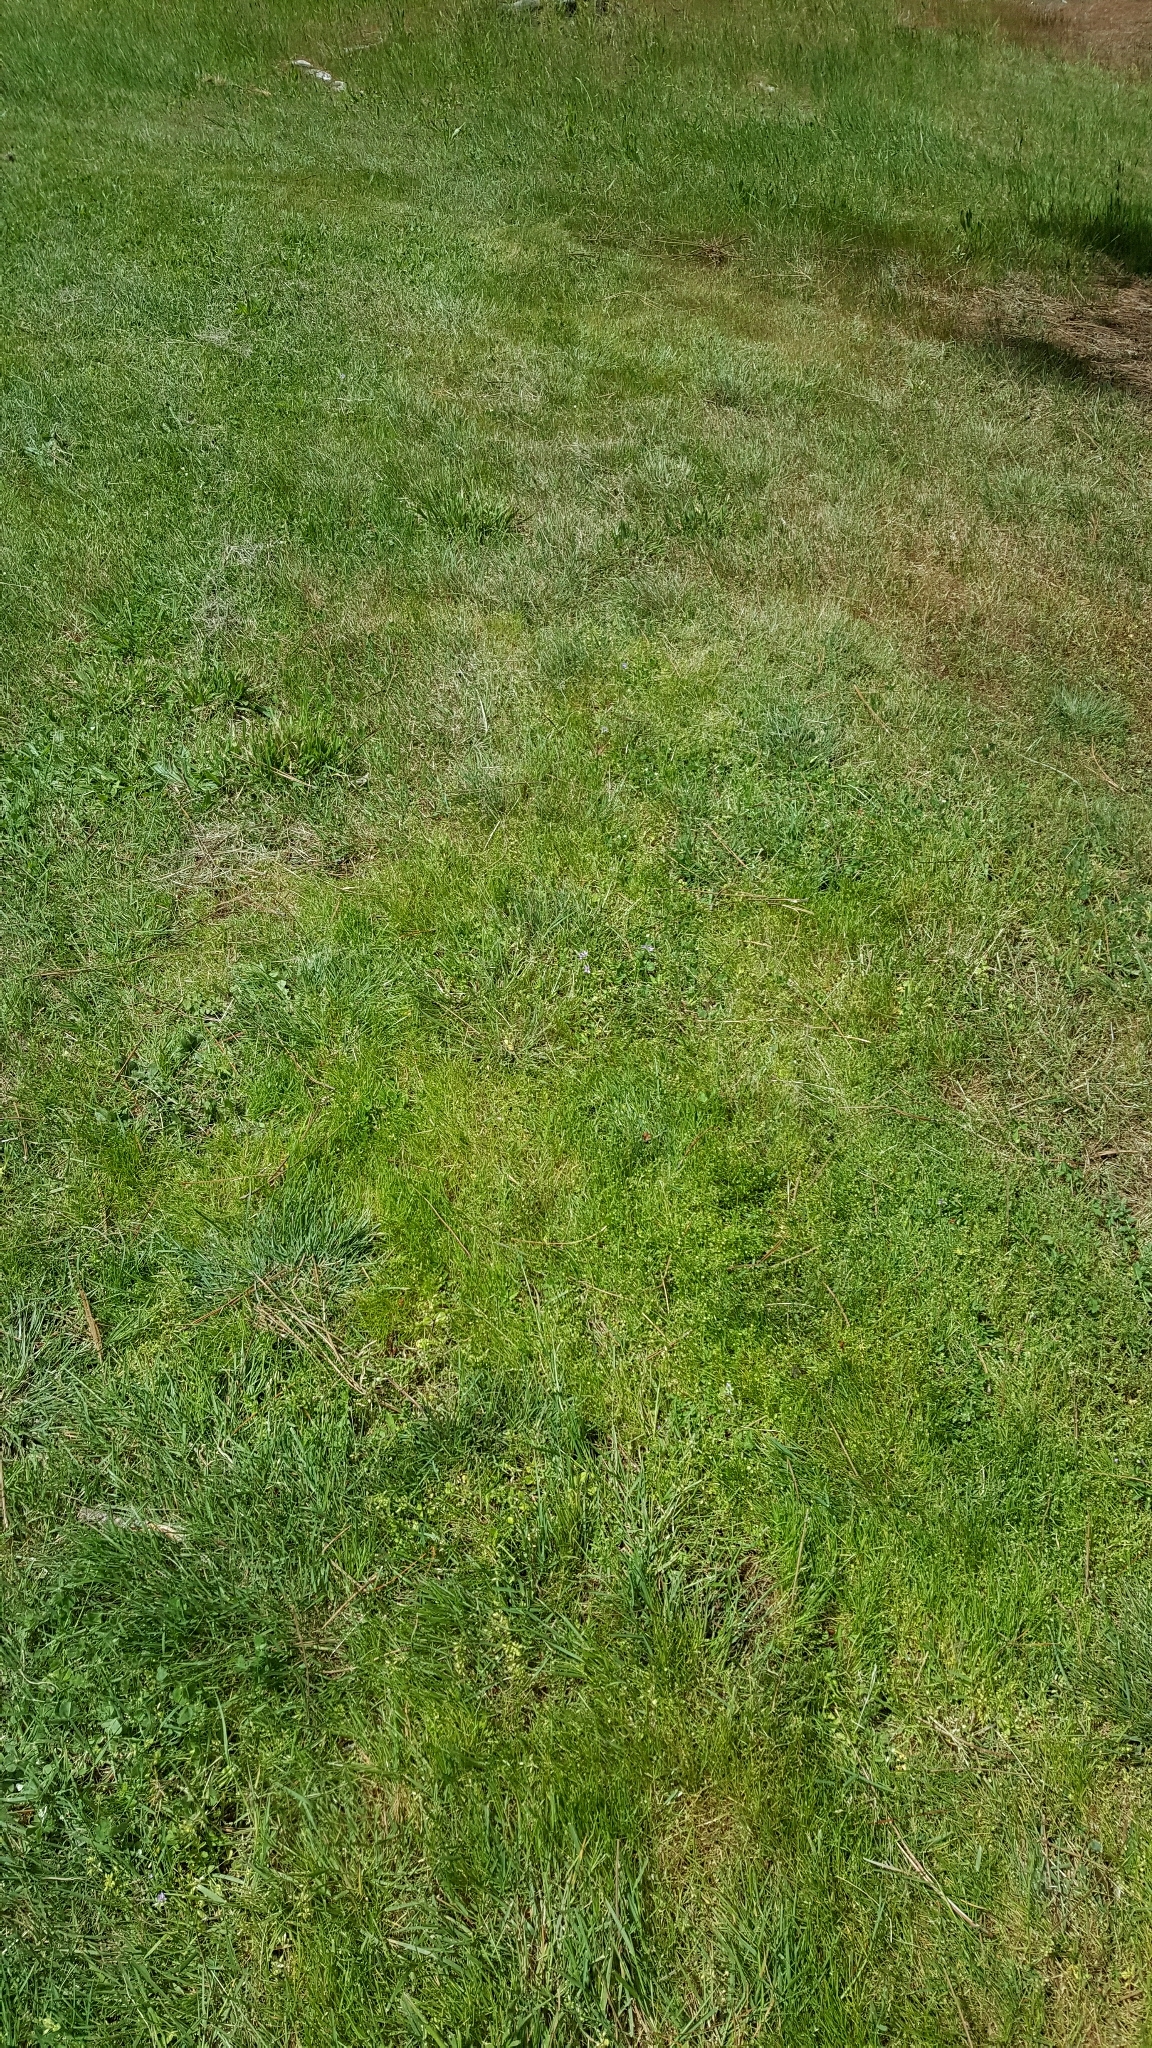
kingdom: Plantae
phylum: Tracheophyta
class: Magnoliopsida
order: Asterales
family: Asteraceae
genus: Cotula
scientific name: Cotula australis
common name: Australian waterbuttons
